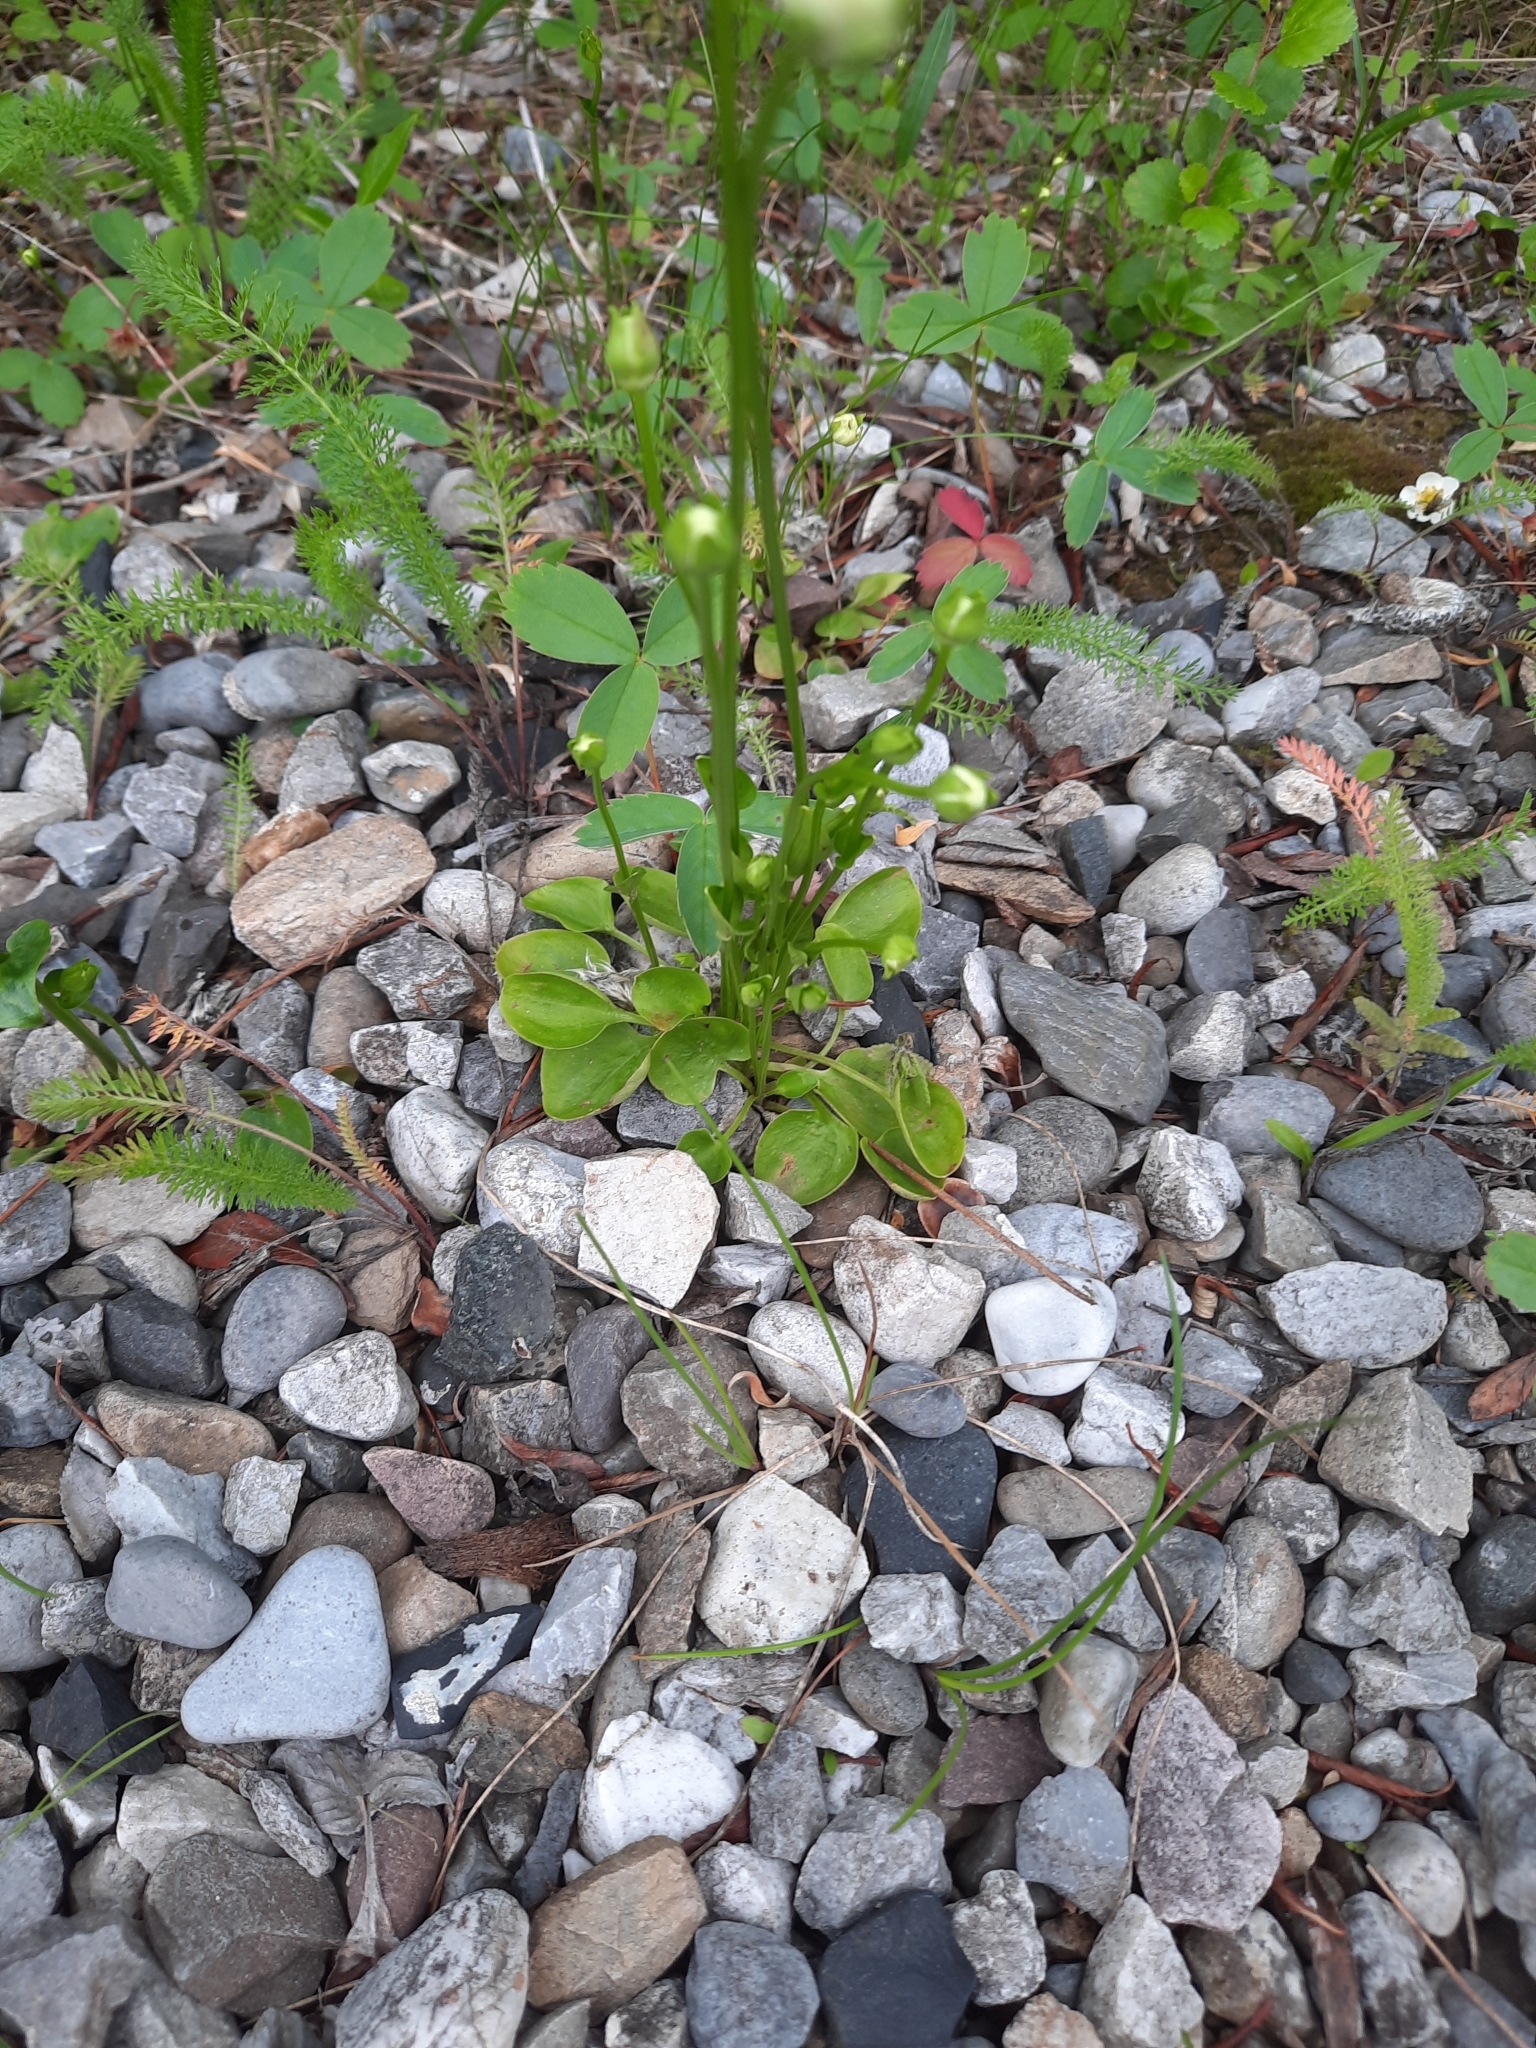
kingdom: Plantae
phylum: Tracheophyta
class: Magnoliopsida
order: Celastrales
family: Parnassiaceae
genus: Parnassia
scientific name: Parnassia palustris
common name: Grass-of-parnassus
